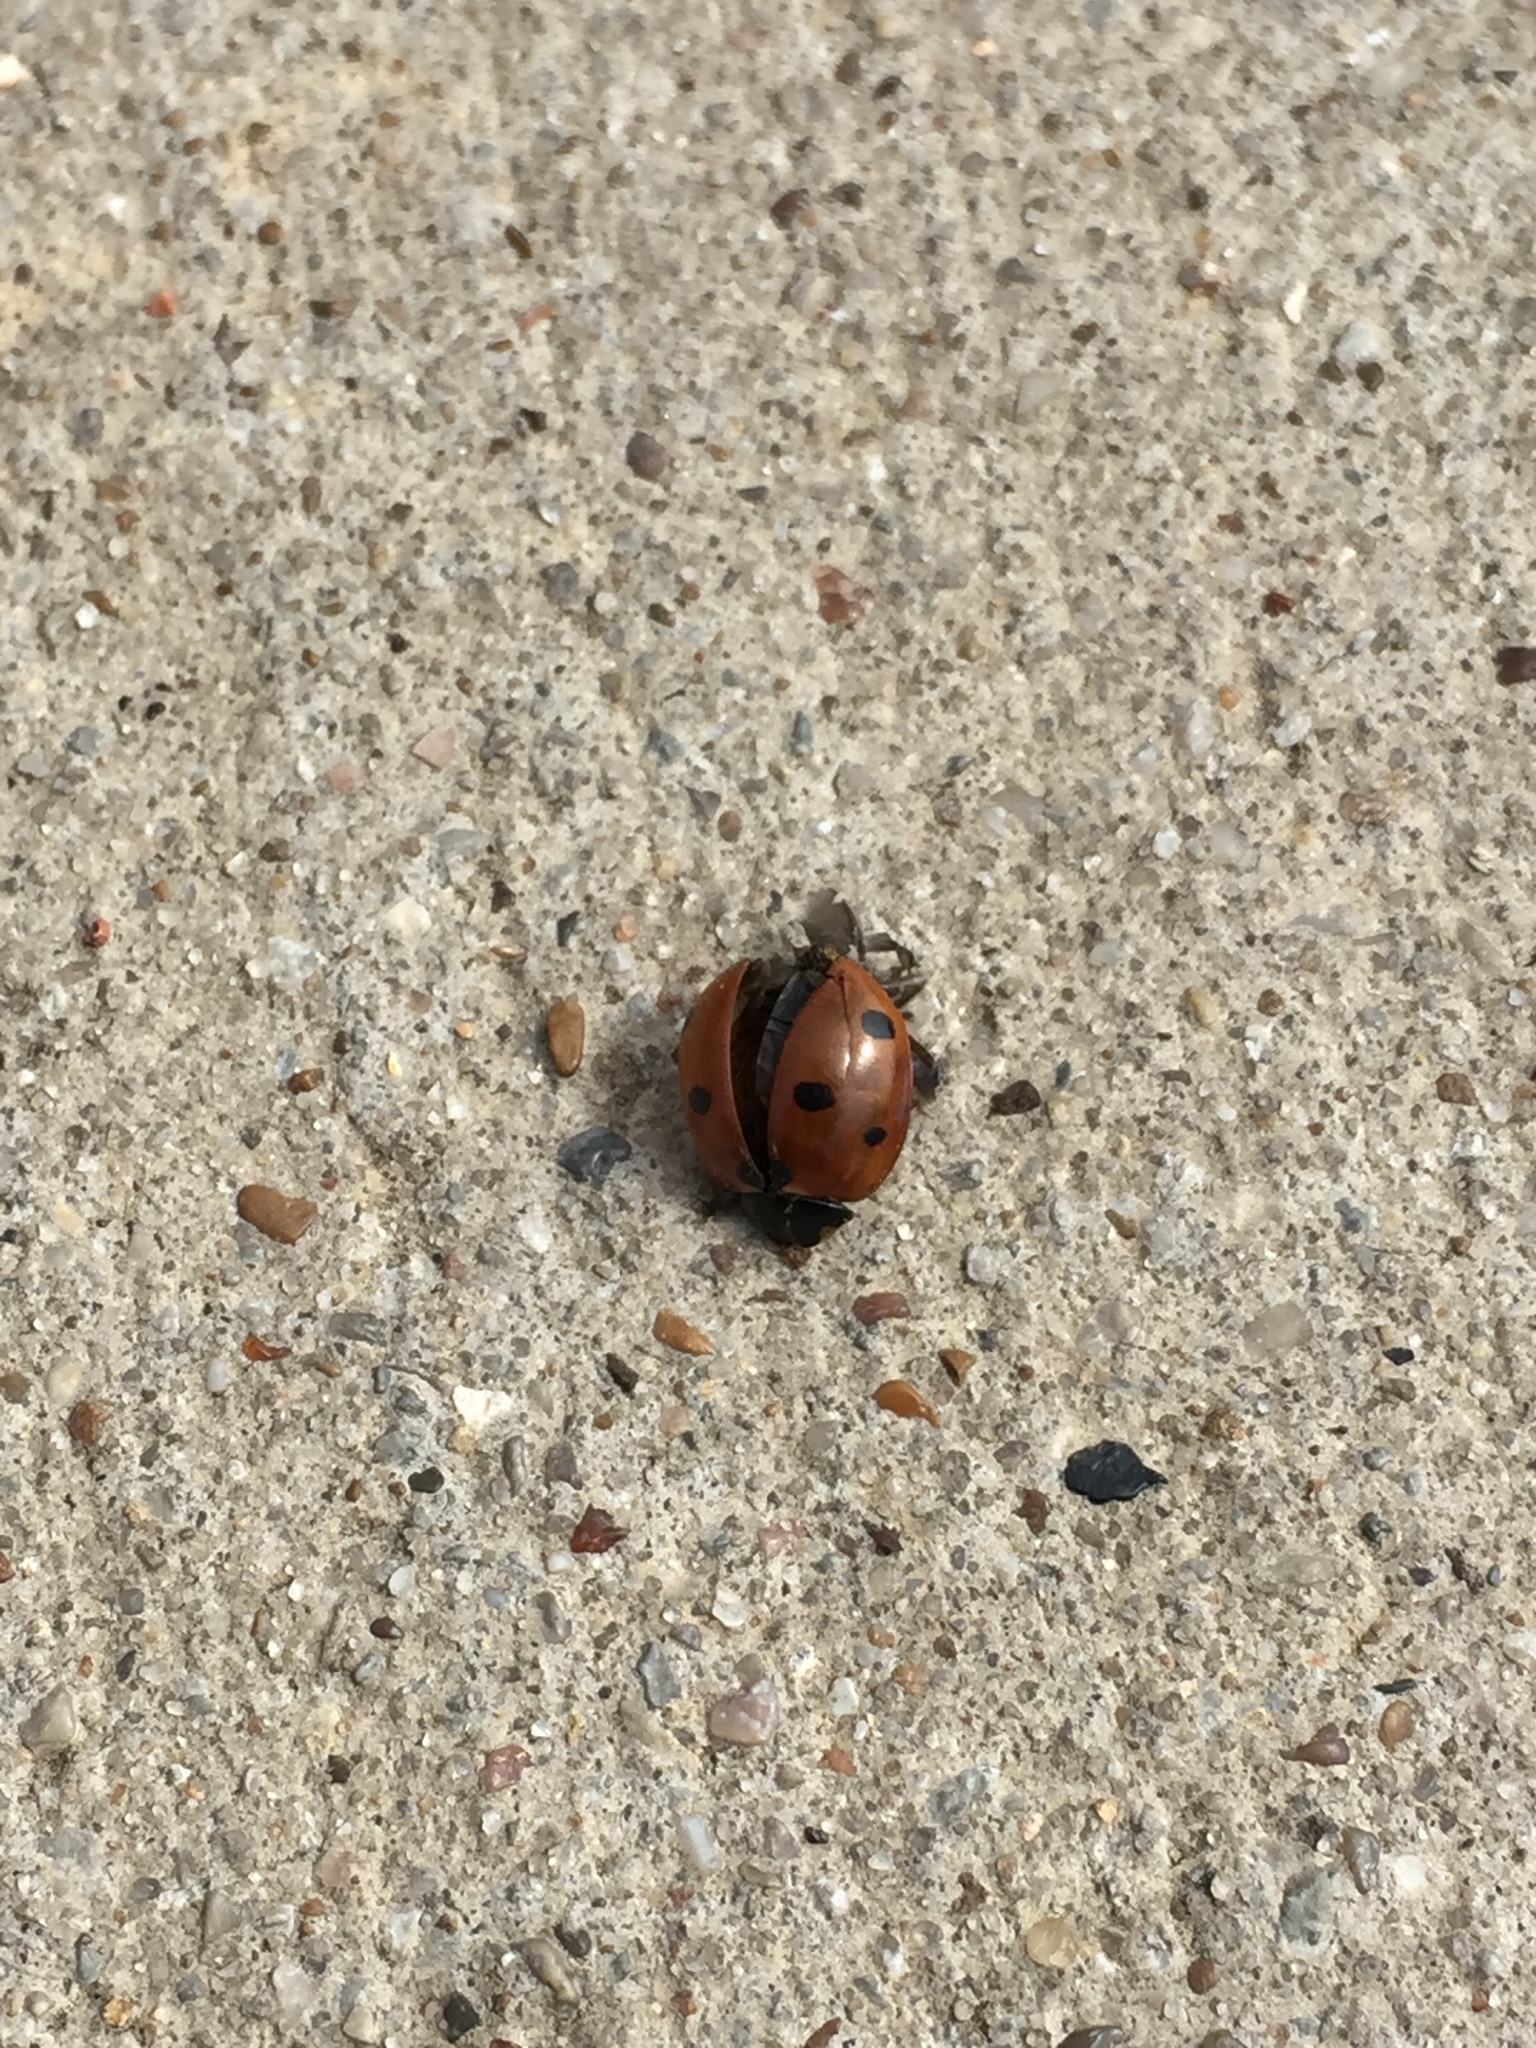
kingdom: Animalia
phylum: Arthropoda
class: Insecta
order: Coleoptera
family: Coccinellidae
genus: Coccinella
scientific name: Coccinella septempunctata
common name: Sevenspotted lady beetle
